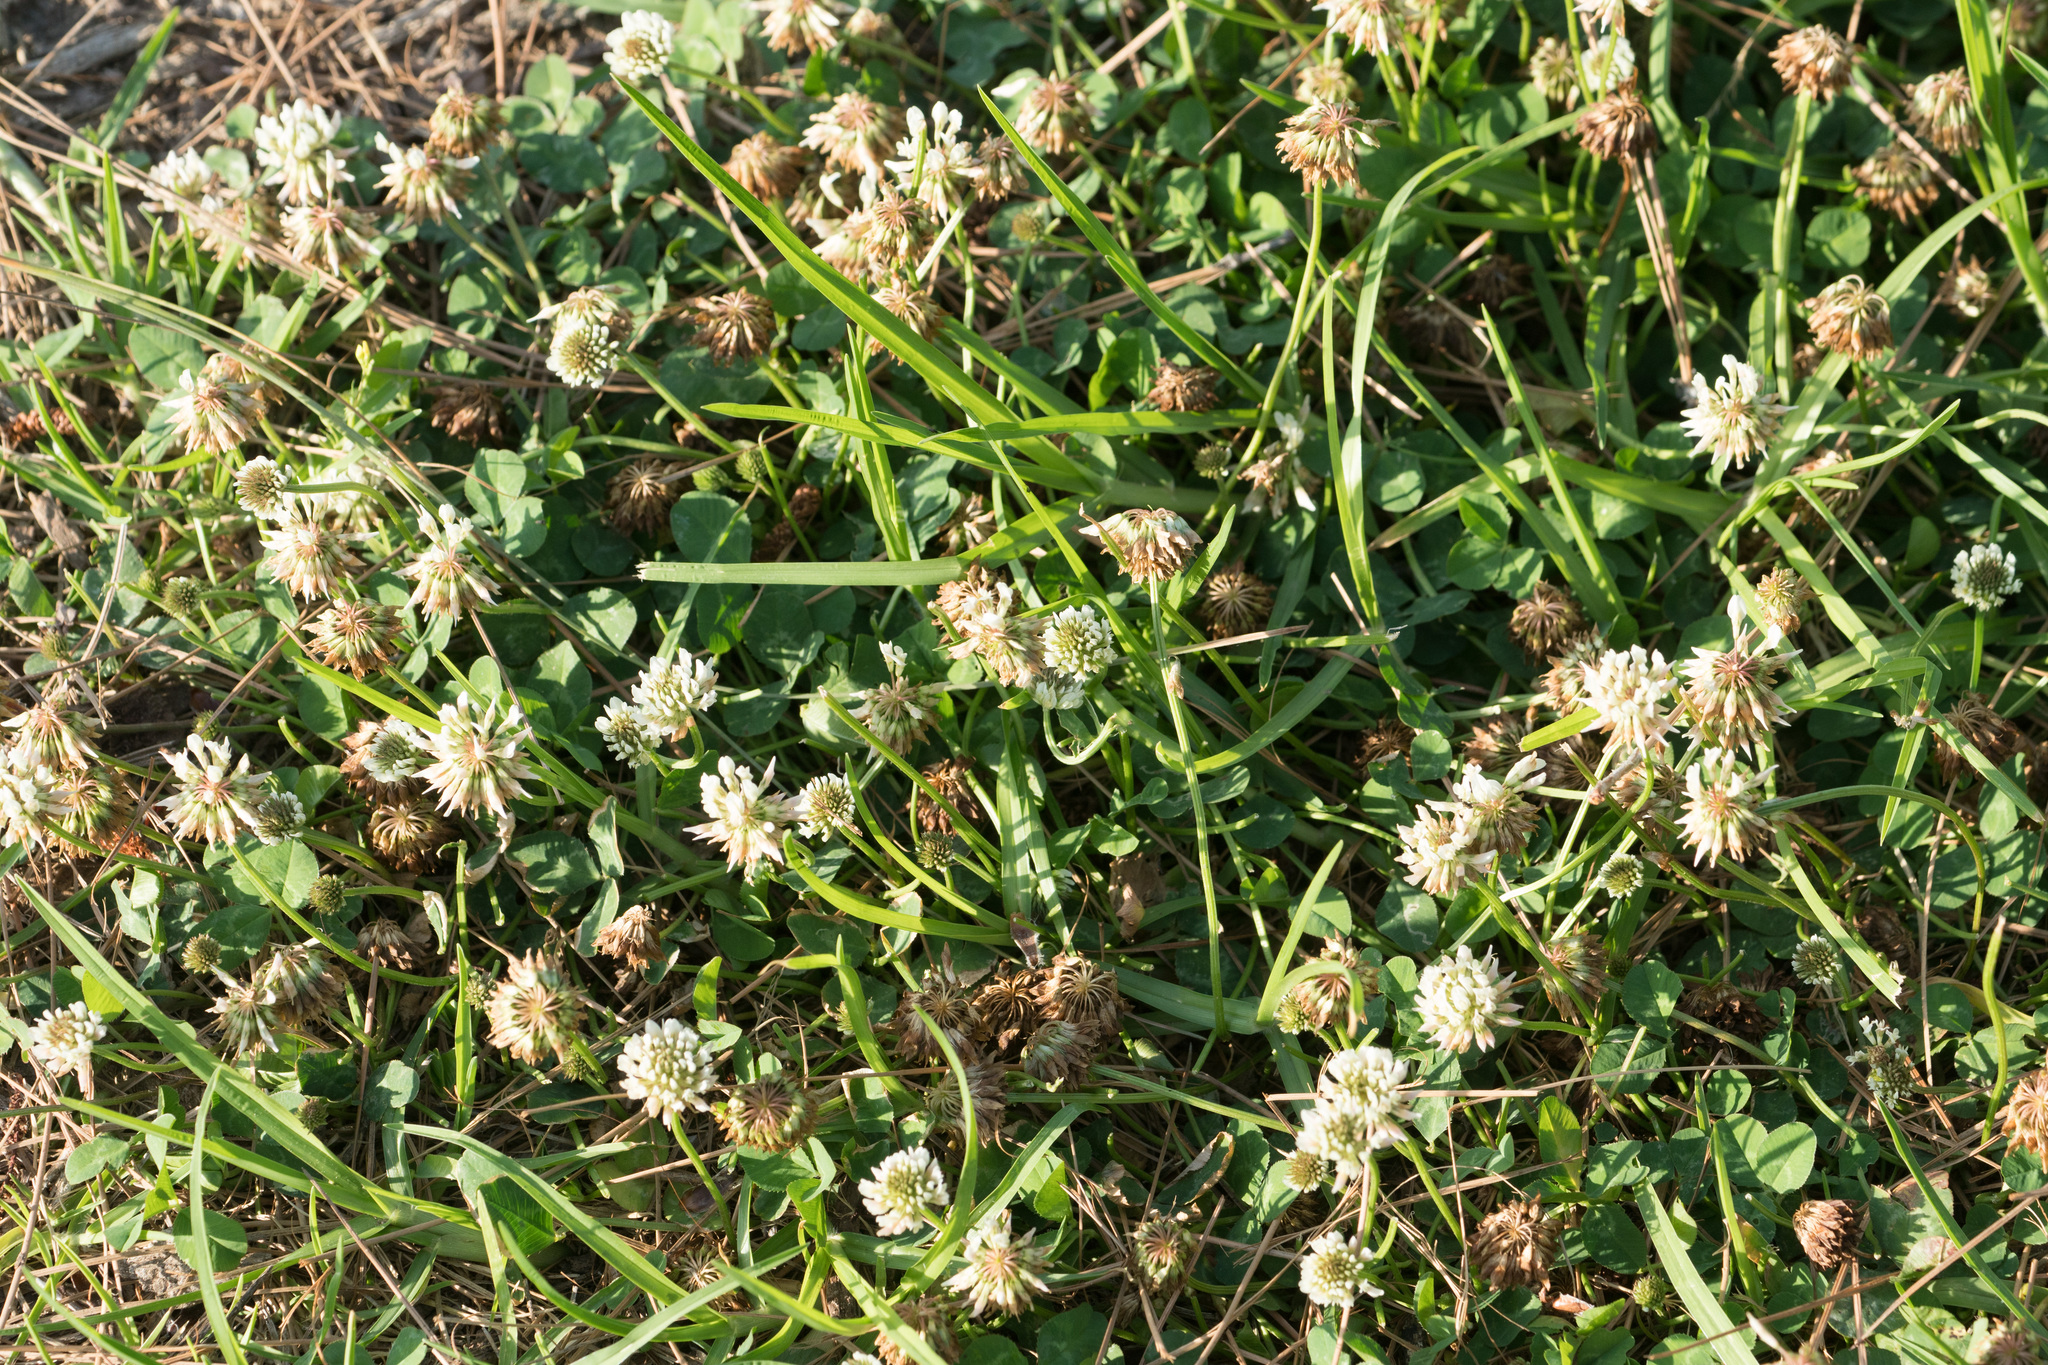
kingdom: Plantae
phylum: Tracheophyta
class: Magnoliopsida
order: Fabales
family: Fabaceae
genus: Trifolium
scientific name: Trifolium repens
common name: White clover
